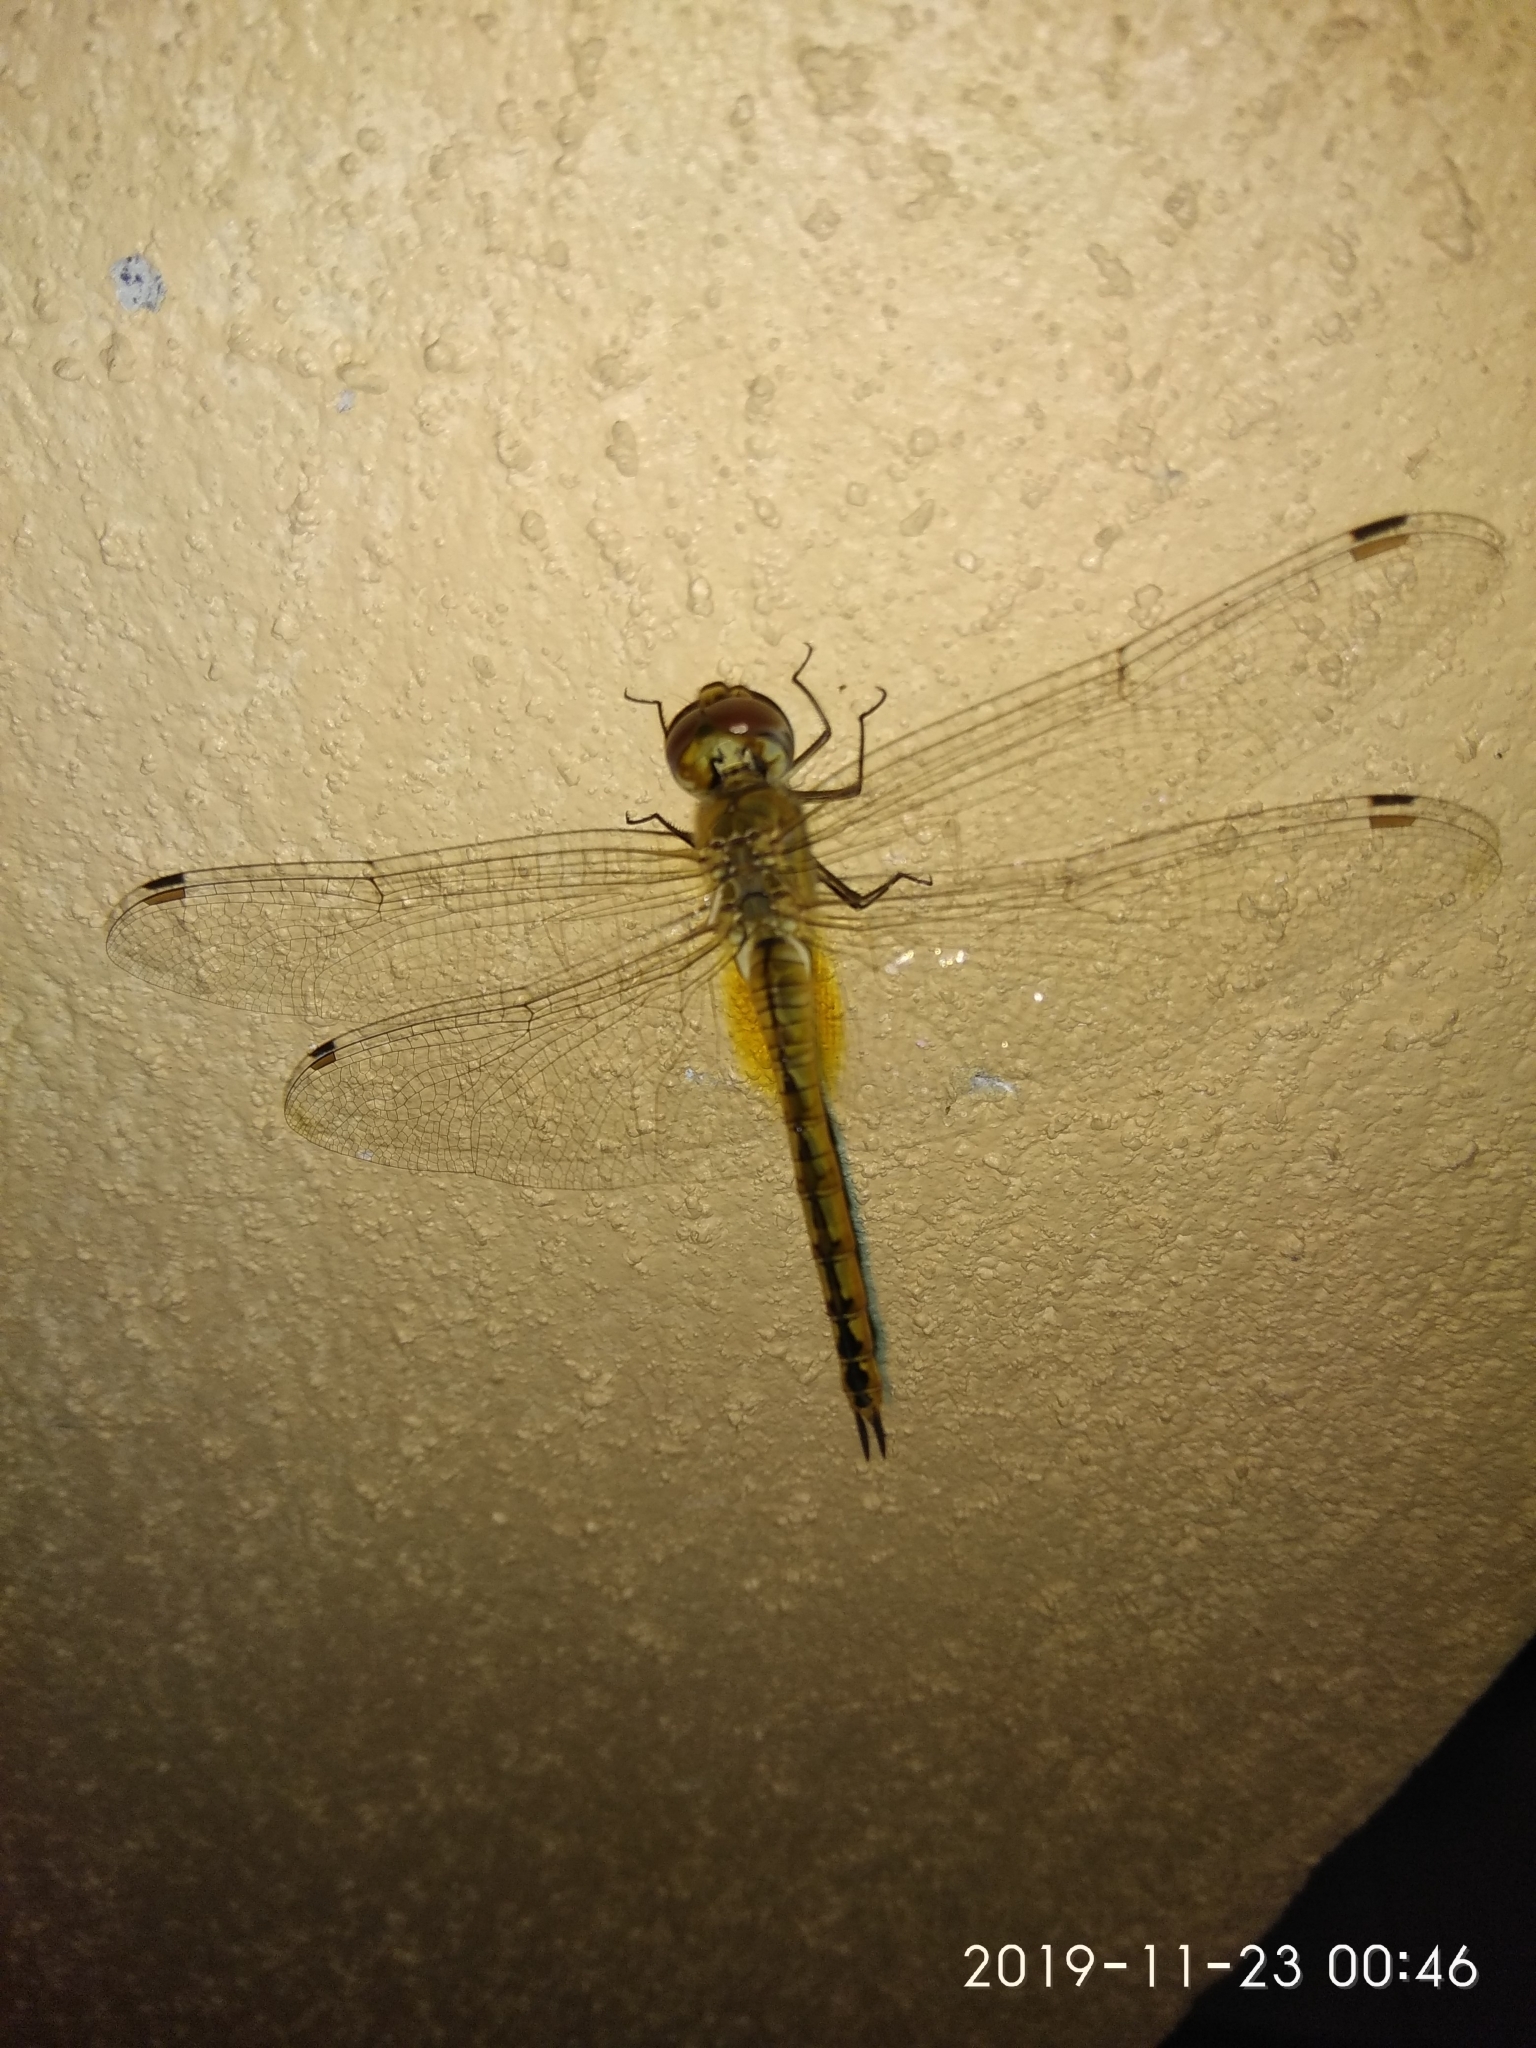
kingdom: Animalia
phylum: Arthropoda
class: Insecta
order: Odonata
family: Libellulidae
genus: Pantala
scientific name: Pantala flavescens
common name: Wandering glider
